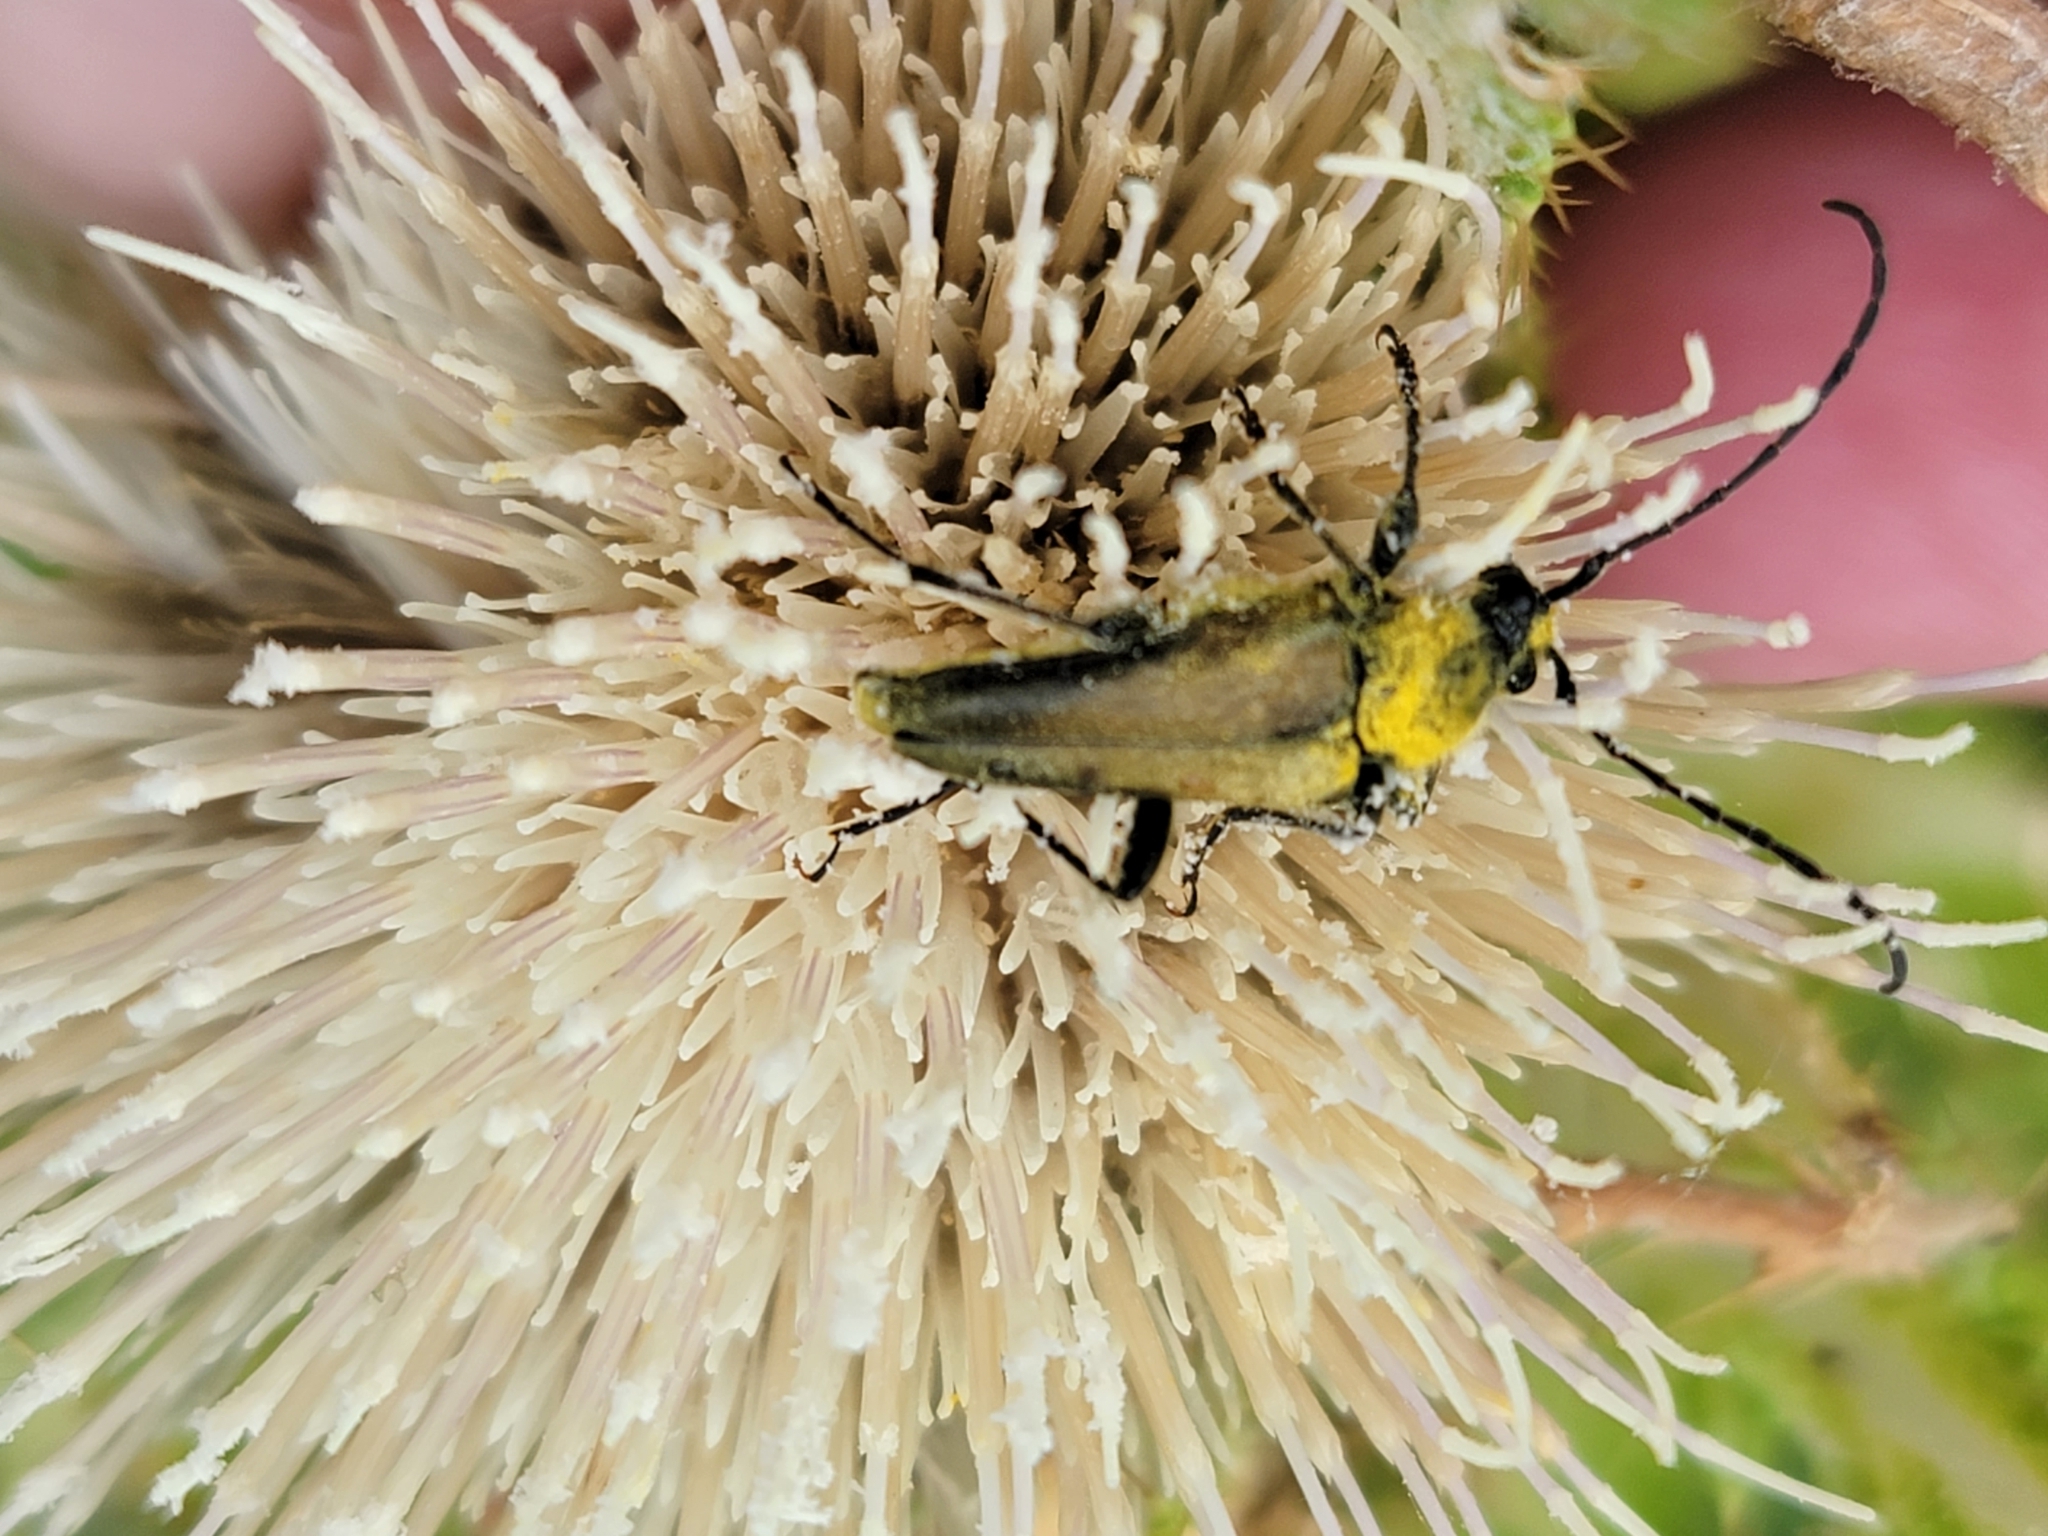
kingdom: Animalia
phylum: Arthropoda
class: Insecta
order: Coleoptera
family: Cerambycidae
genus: Cosmosalia
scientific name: Cosmosalia chrysocoma
